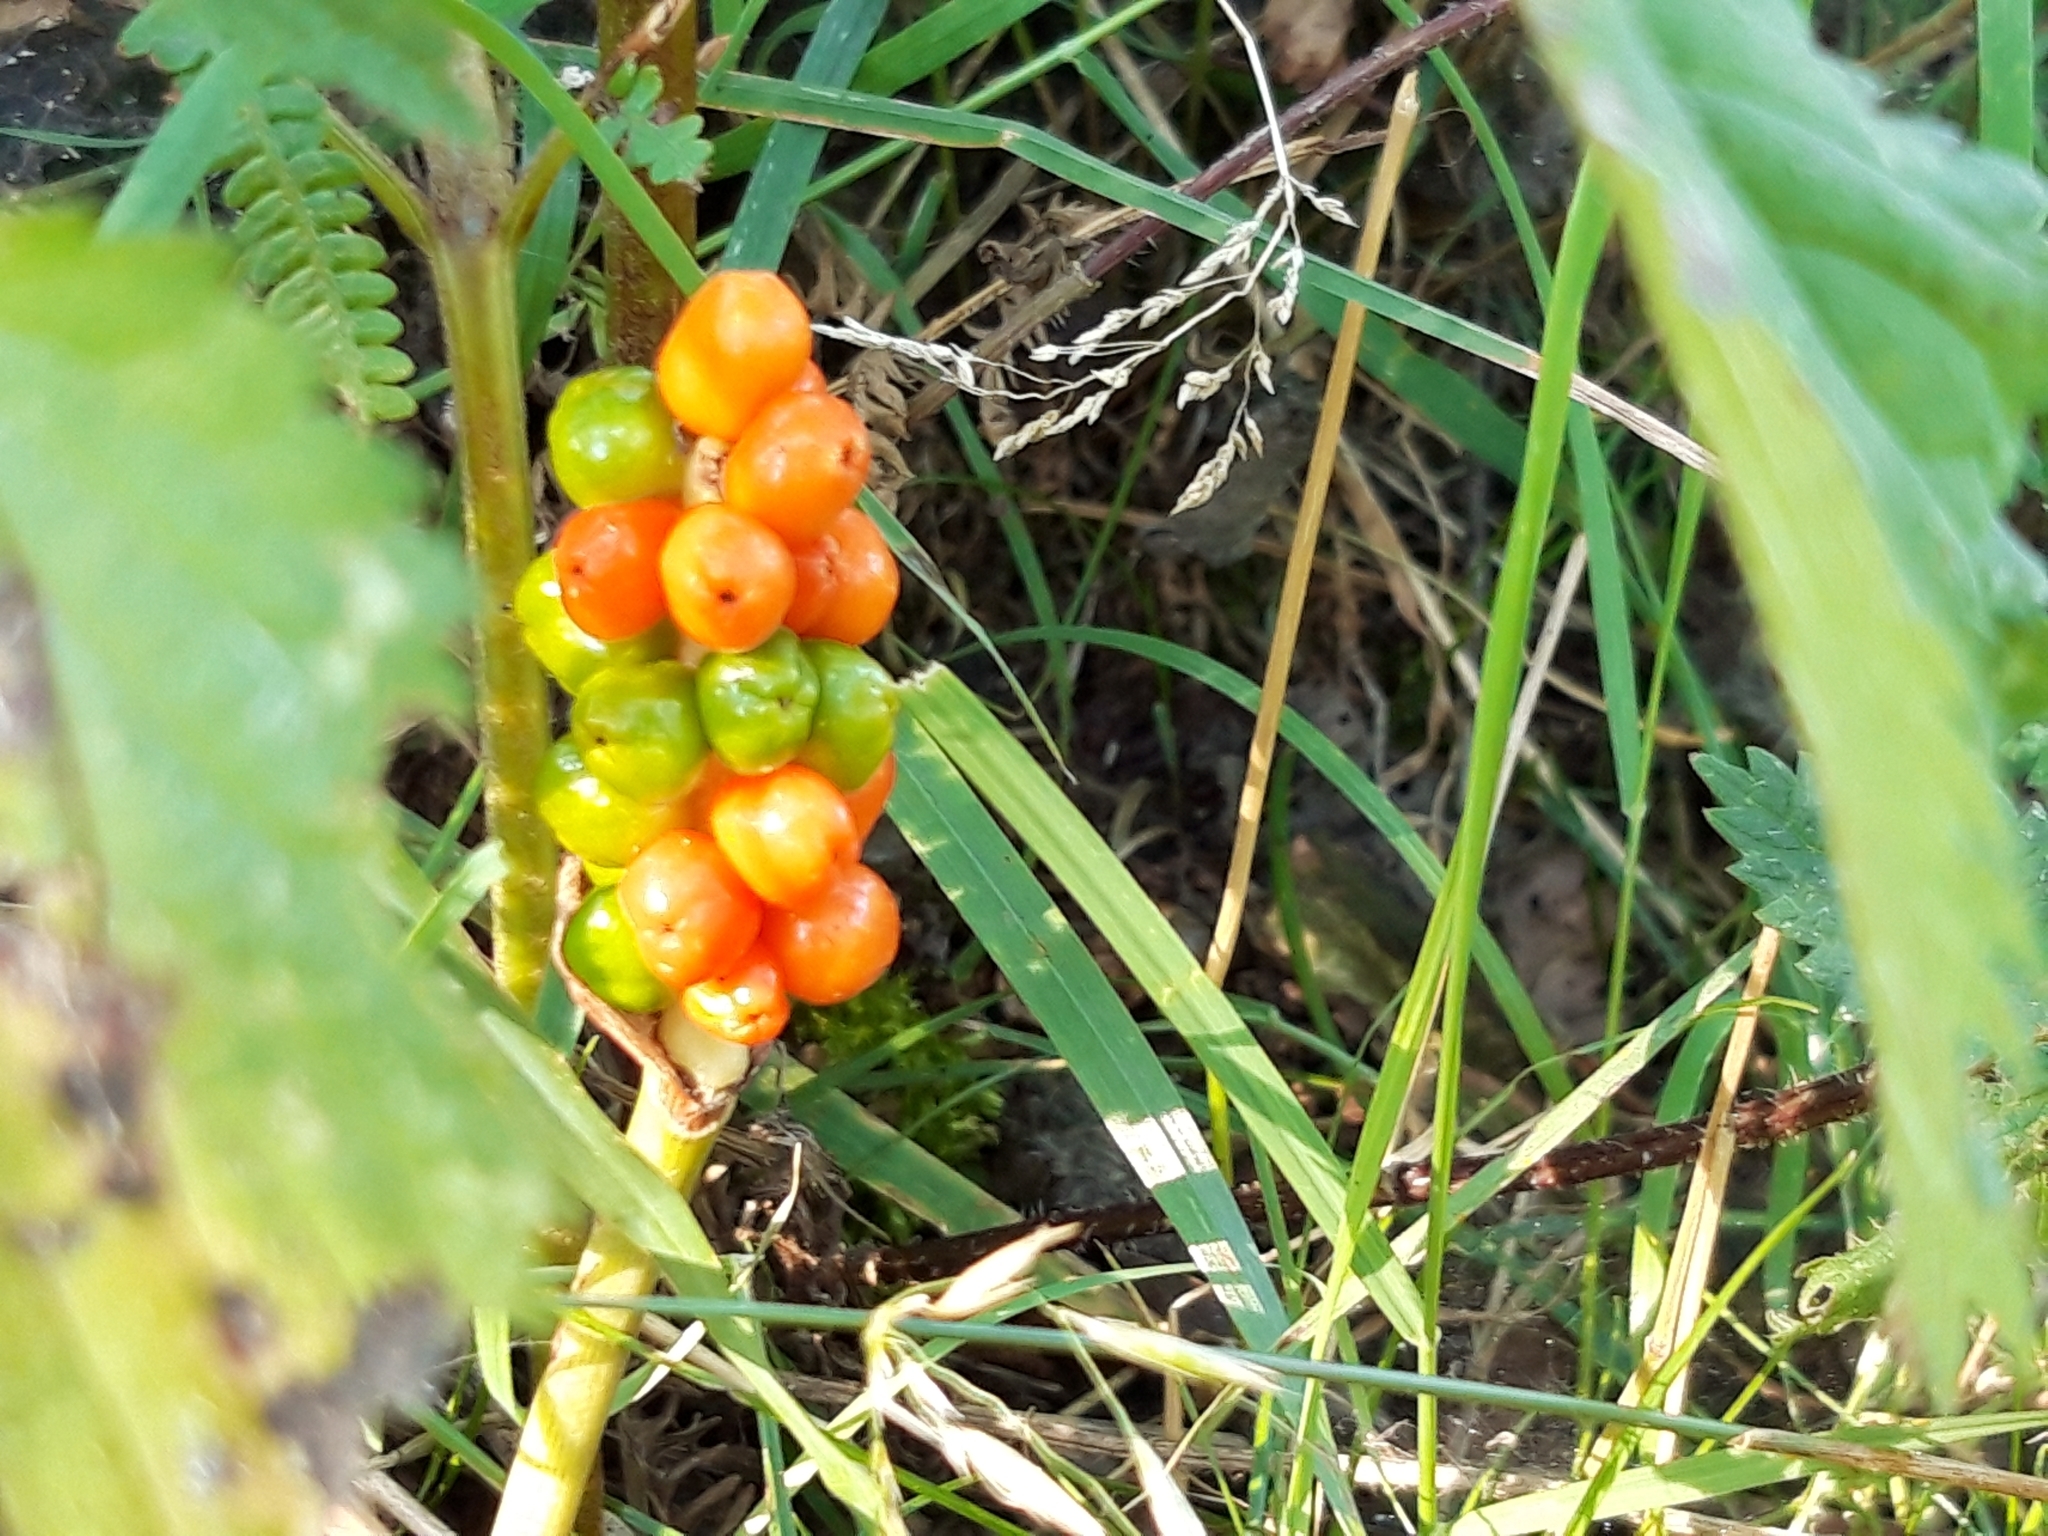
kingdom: Plantae
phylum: Tracheophyta
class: Liliopsida
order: Alismatales
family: Araceae
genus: Arum
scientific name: Arum maculatum
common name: Lords-and-ladies
